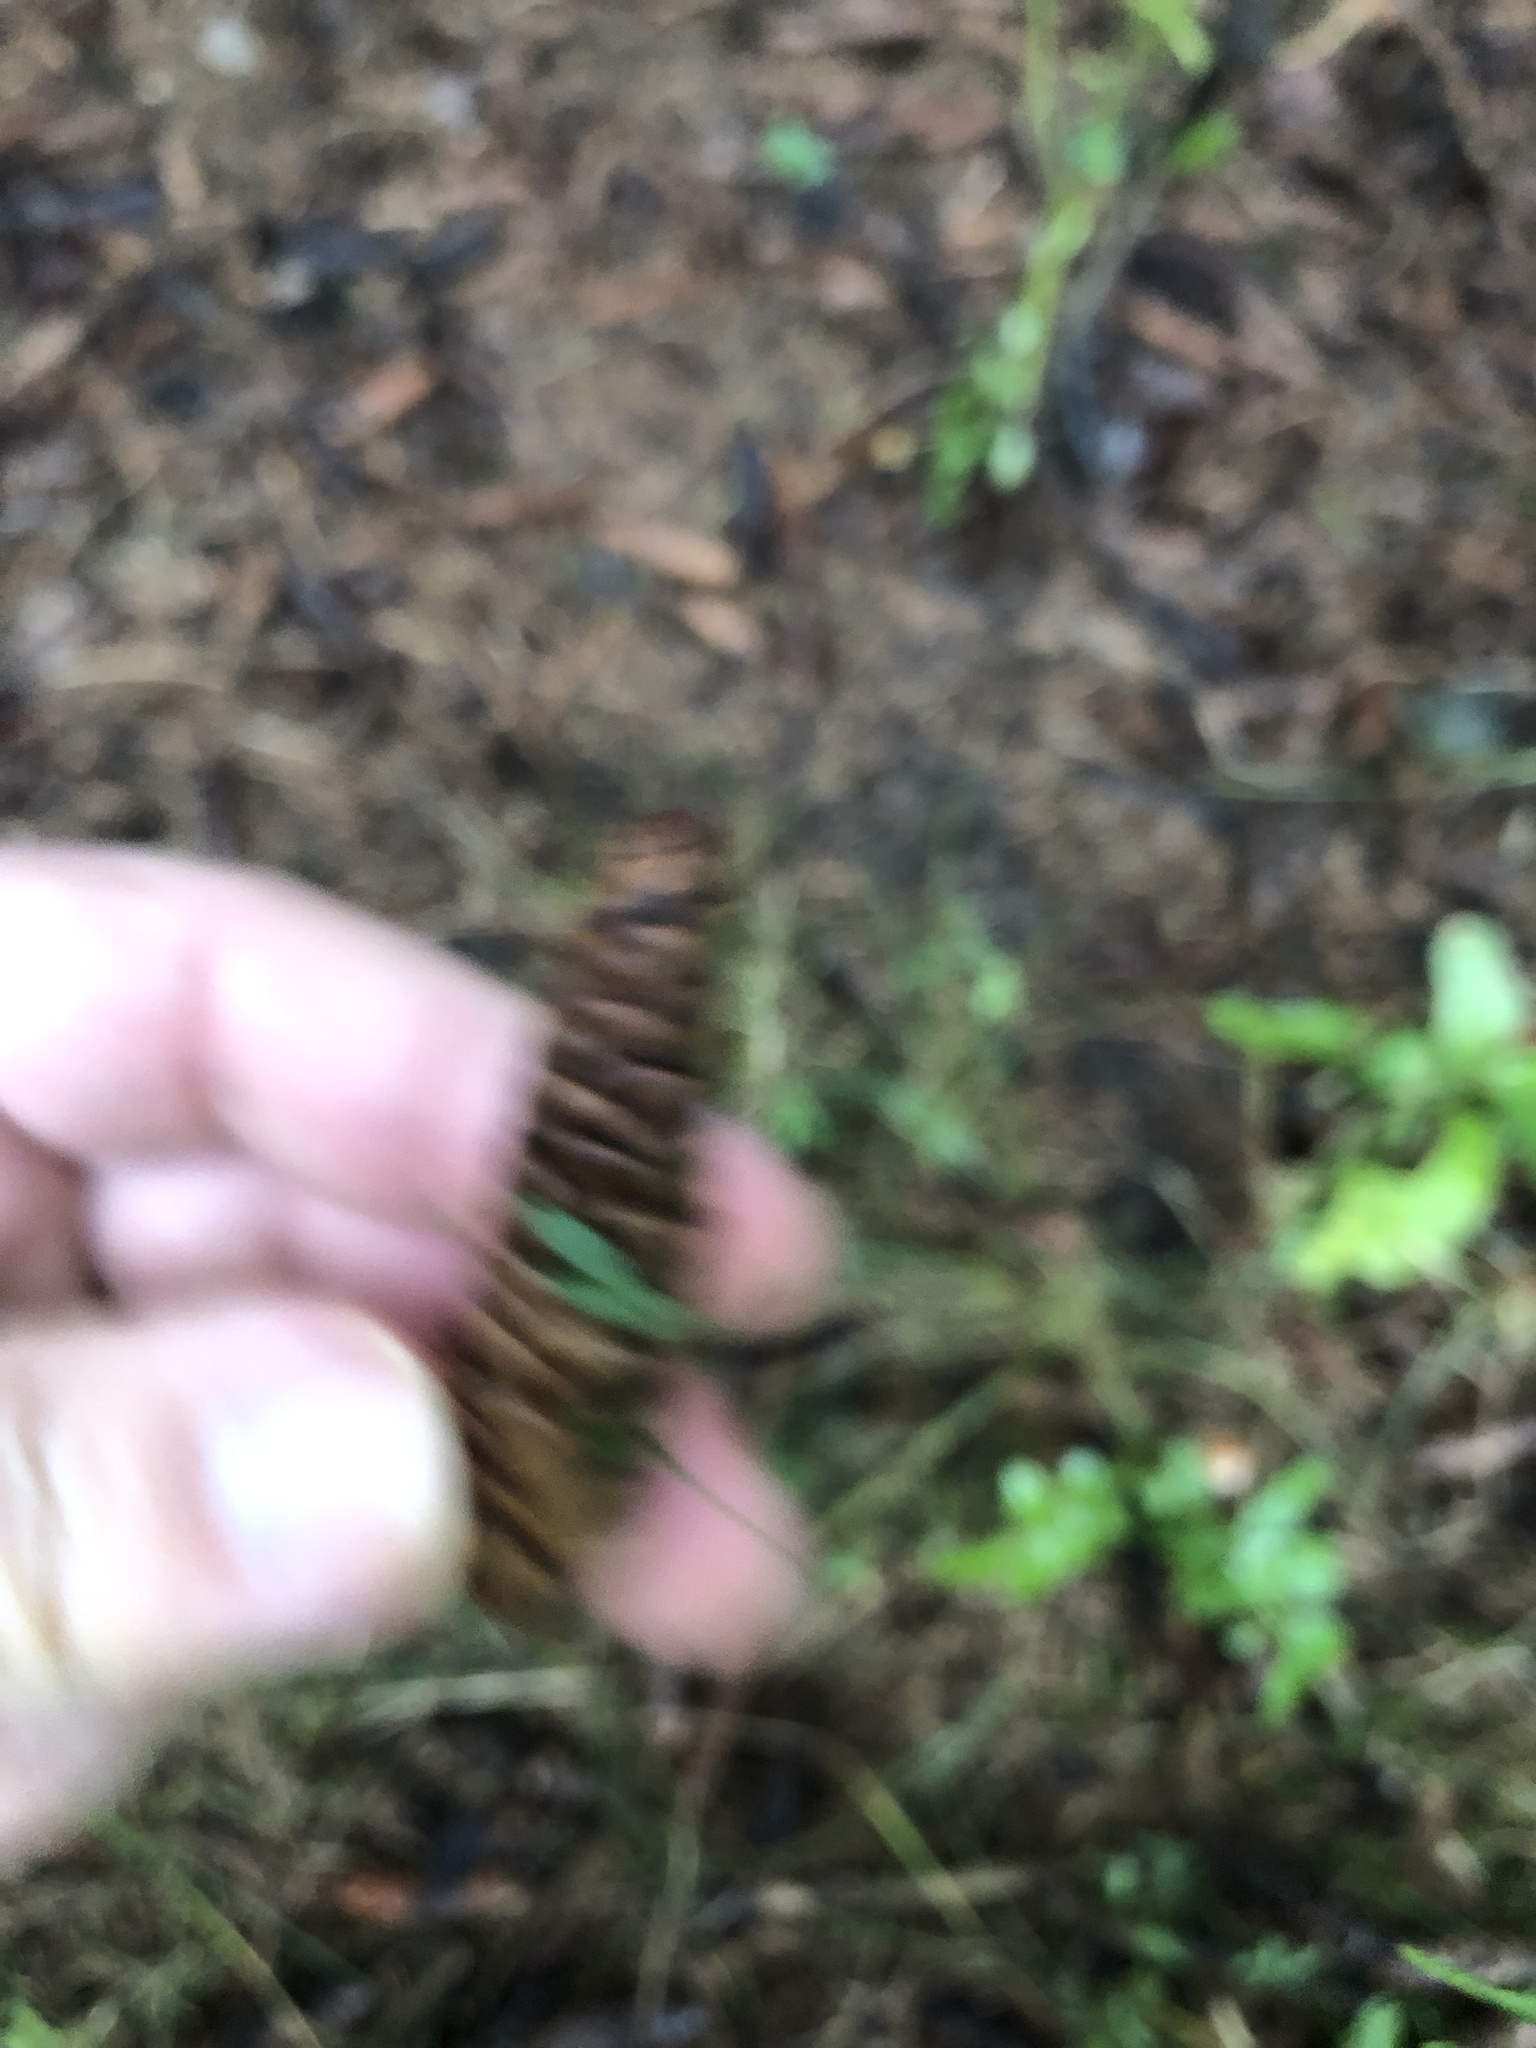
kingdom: Plantae
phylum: Tracheophyta
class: Pinopsida
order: Pinales
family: Pinaceae
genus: Picea
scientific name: Picea glauca
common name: White spruce
